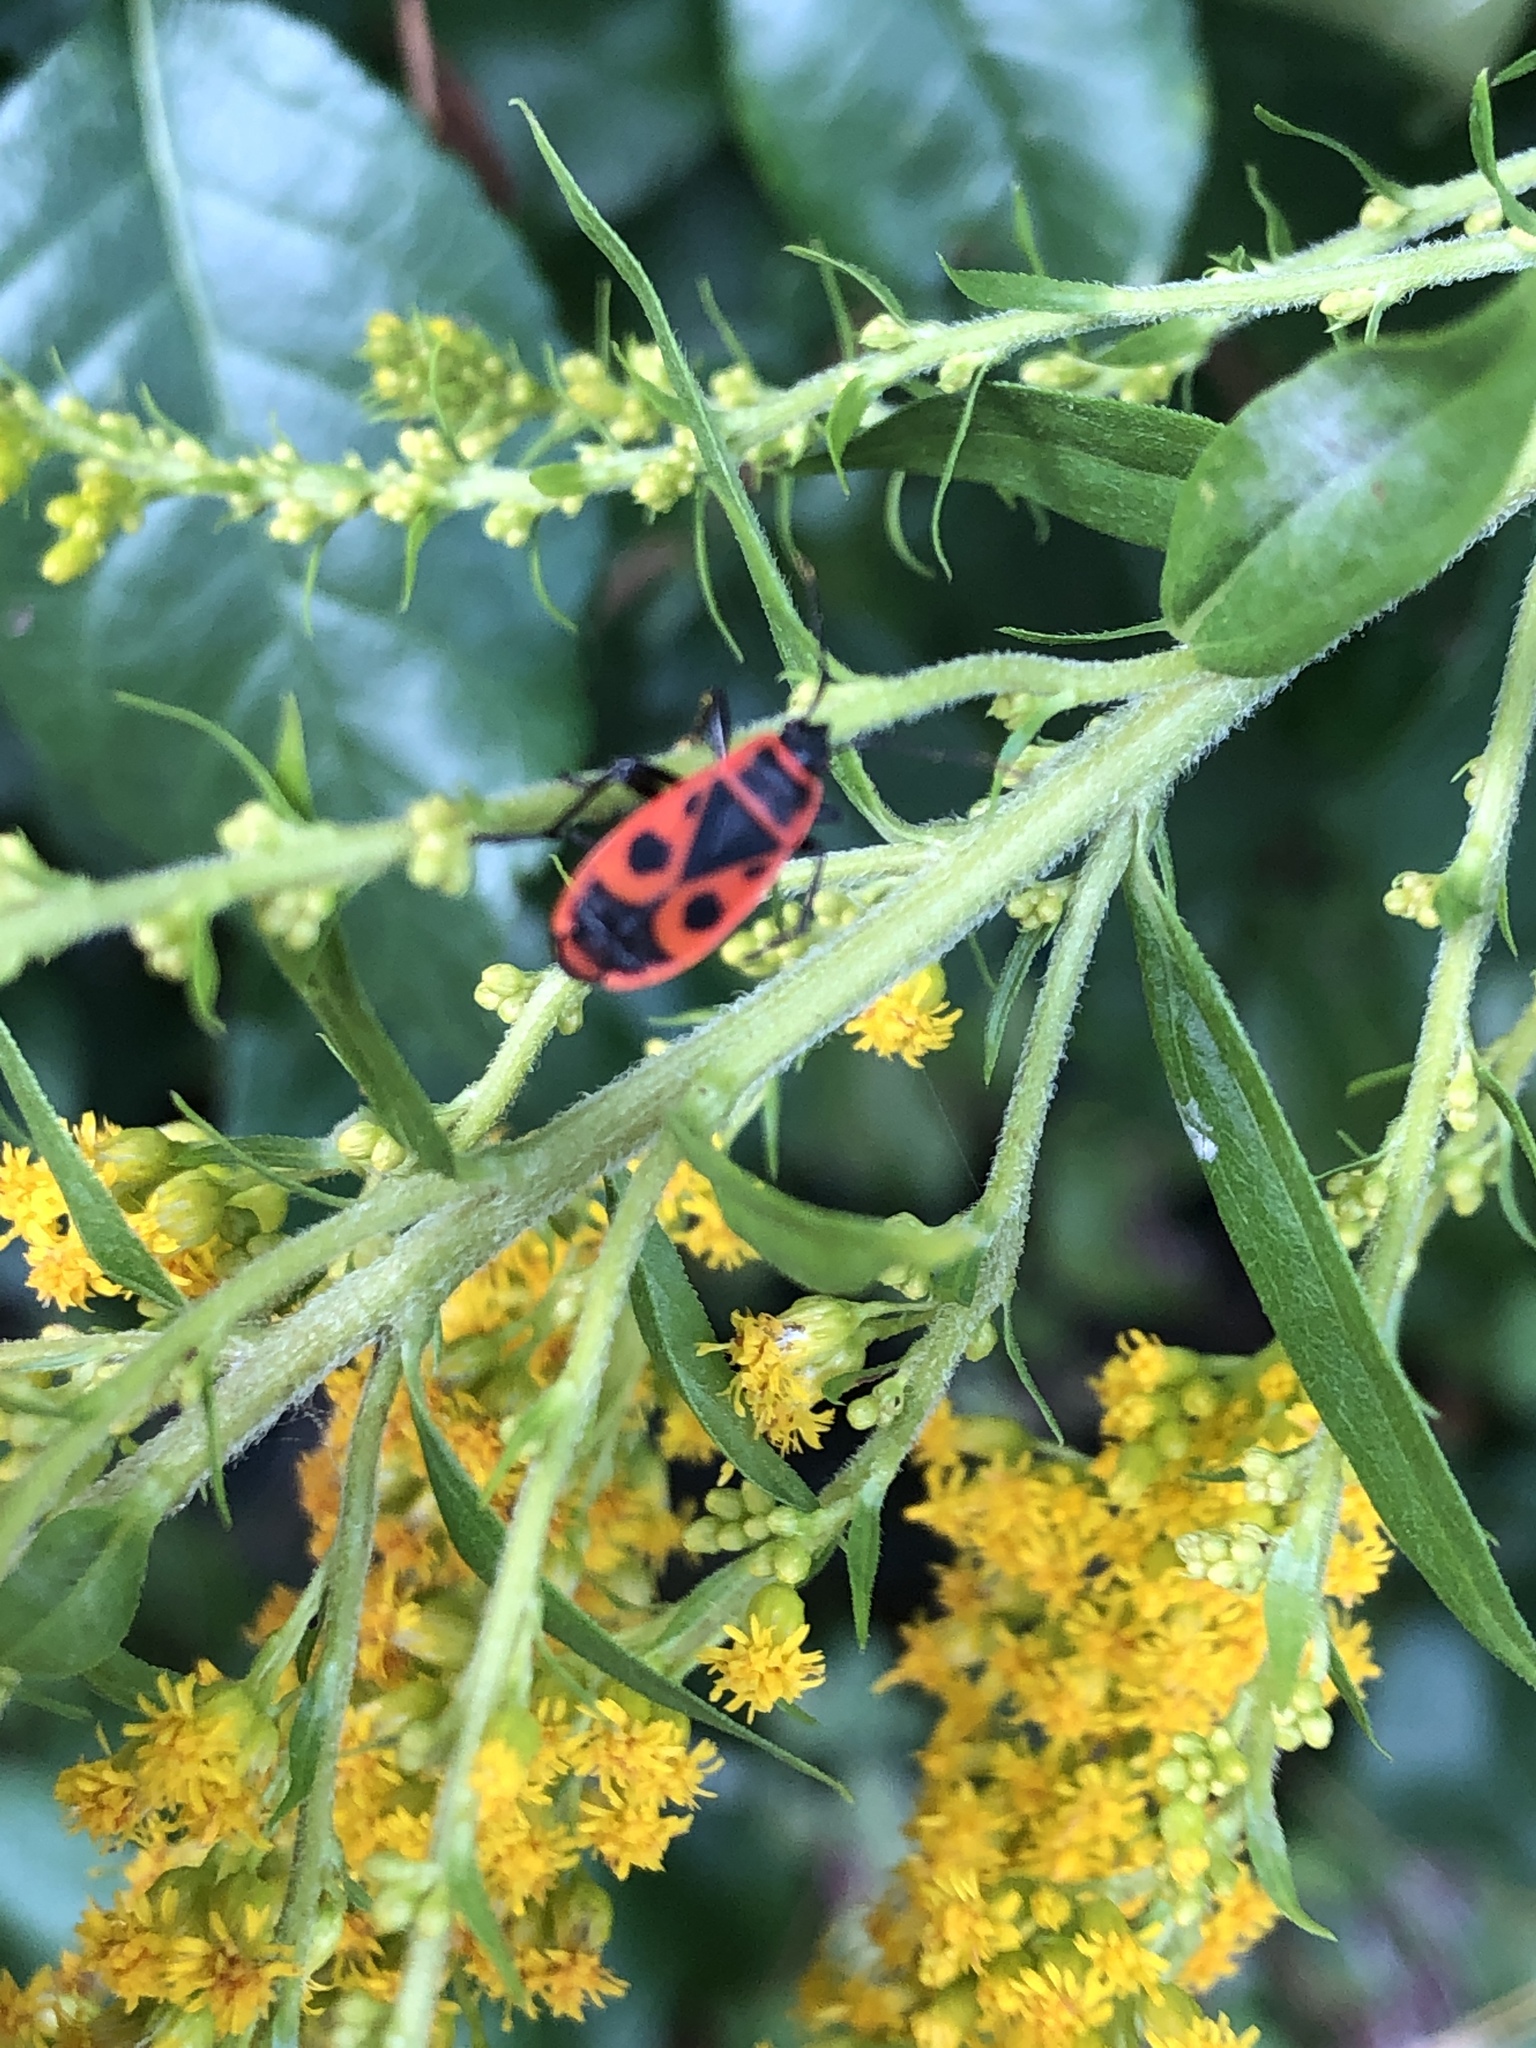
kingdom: Animalia
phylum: Arthropoda
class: Insecta
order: Hemiptera
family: Pyrrhocoridae
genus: Pyrrhocoris
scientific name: Pyrrhocoris apterus
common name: Firebug
